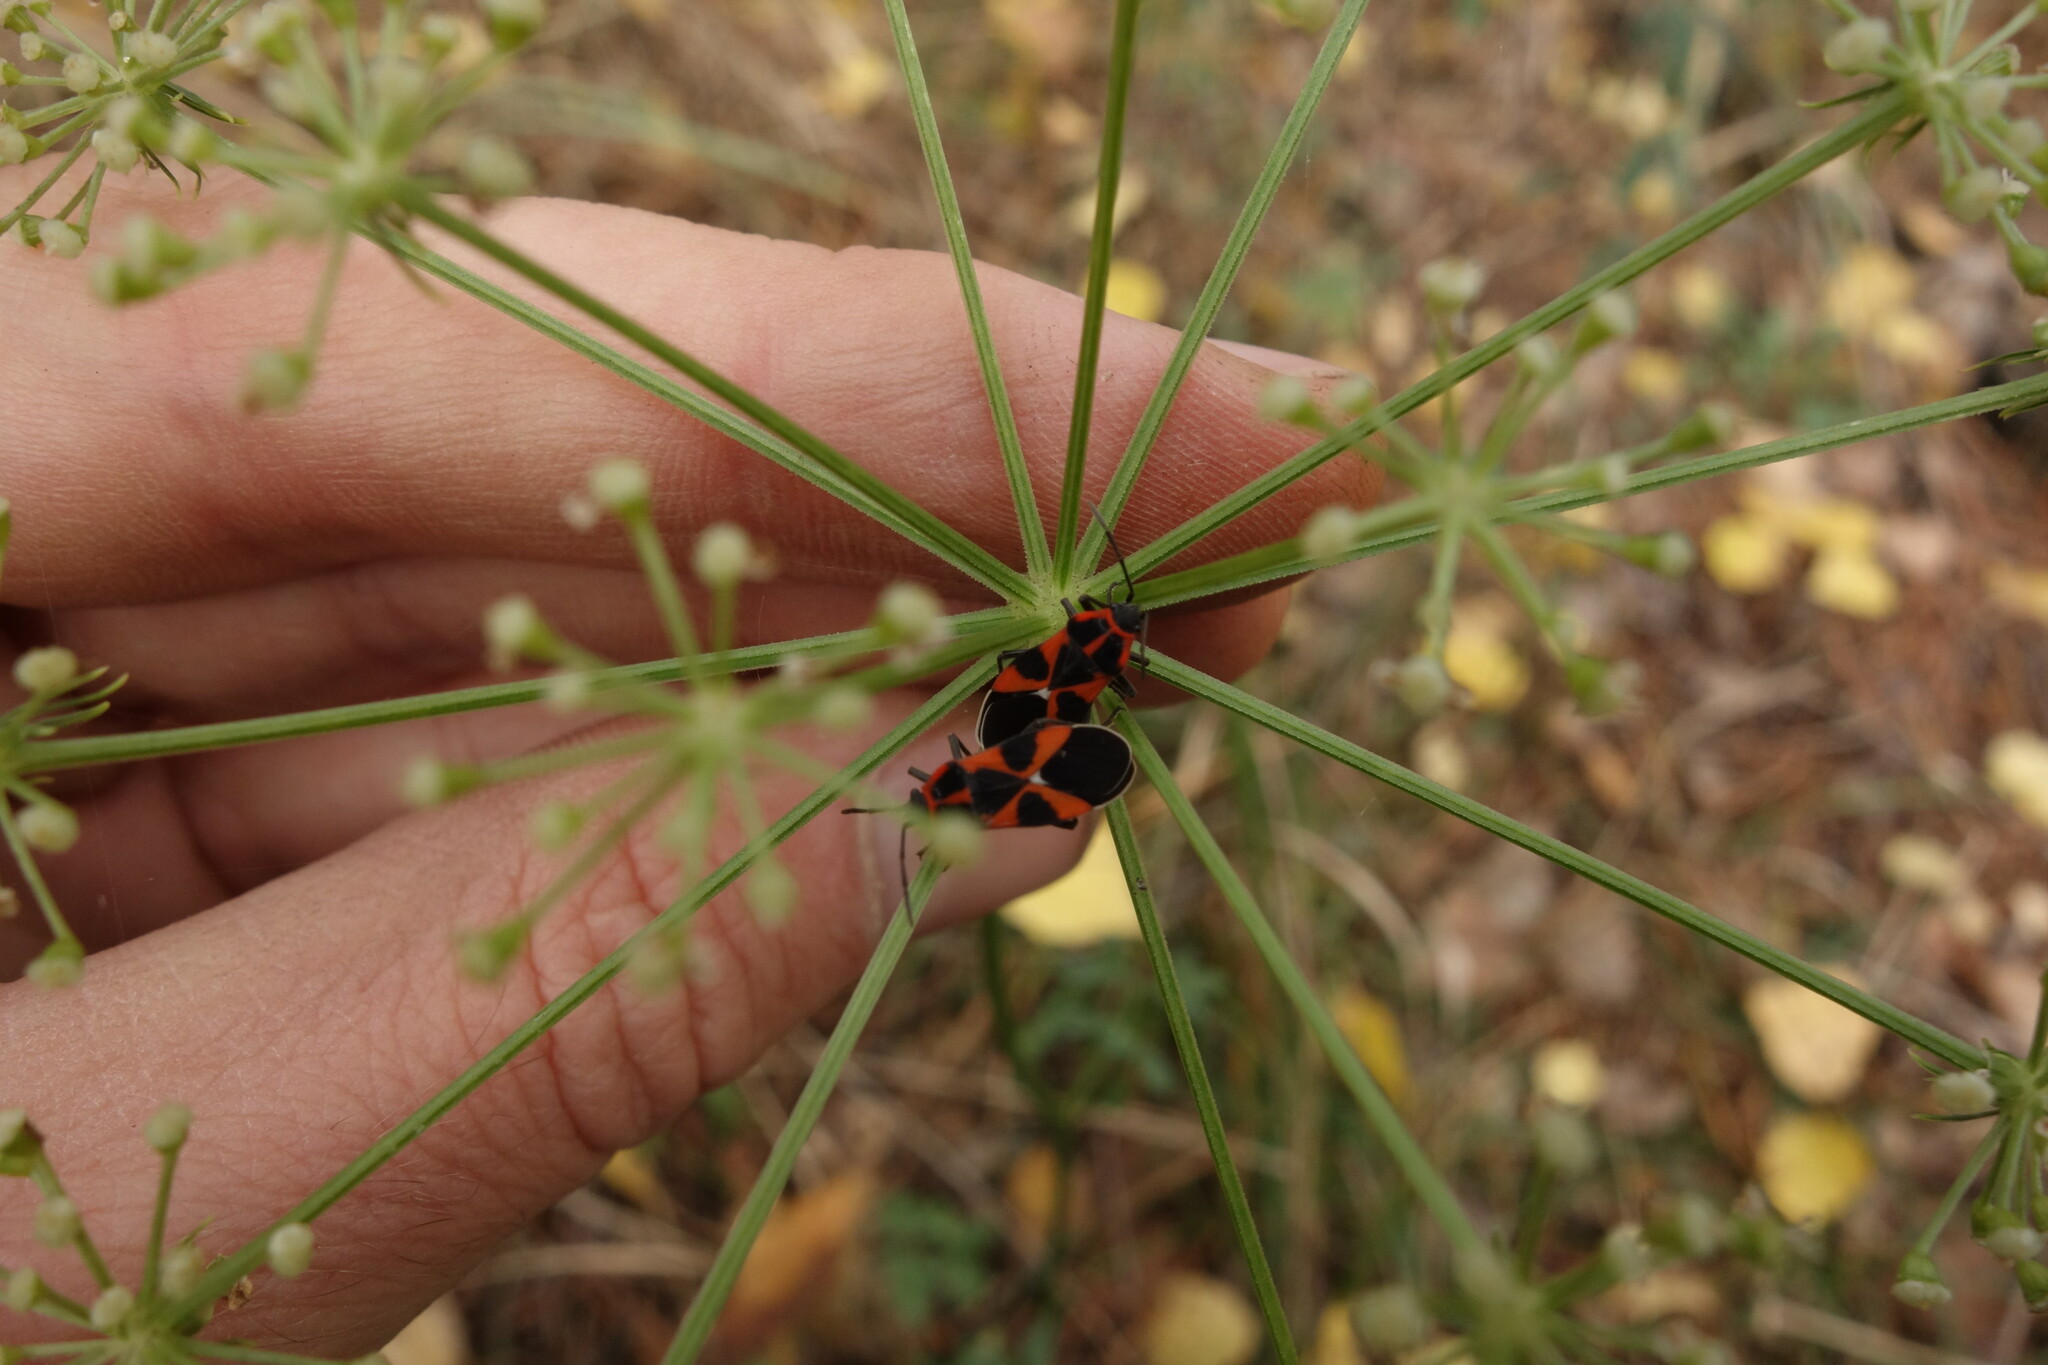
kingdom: Animalia
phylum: Arthropoda
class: Insecta
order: Hemiptera
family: Lygaeidae
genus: Tropidothorax
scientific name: Tropidothorax leucopterus
